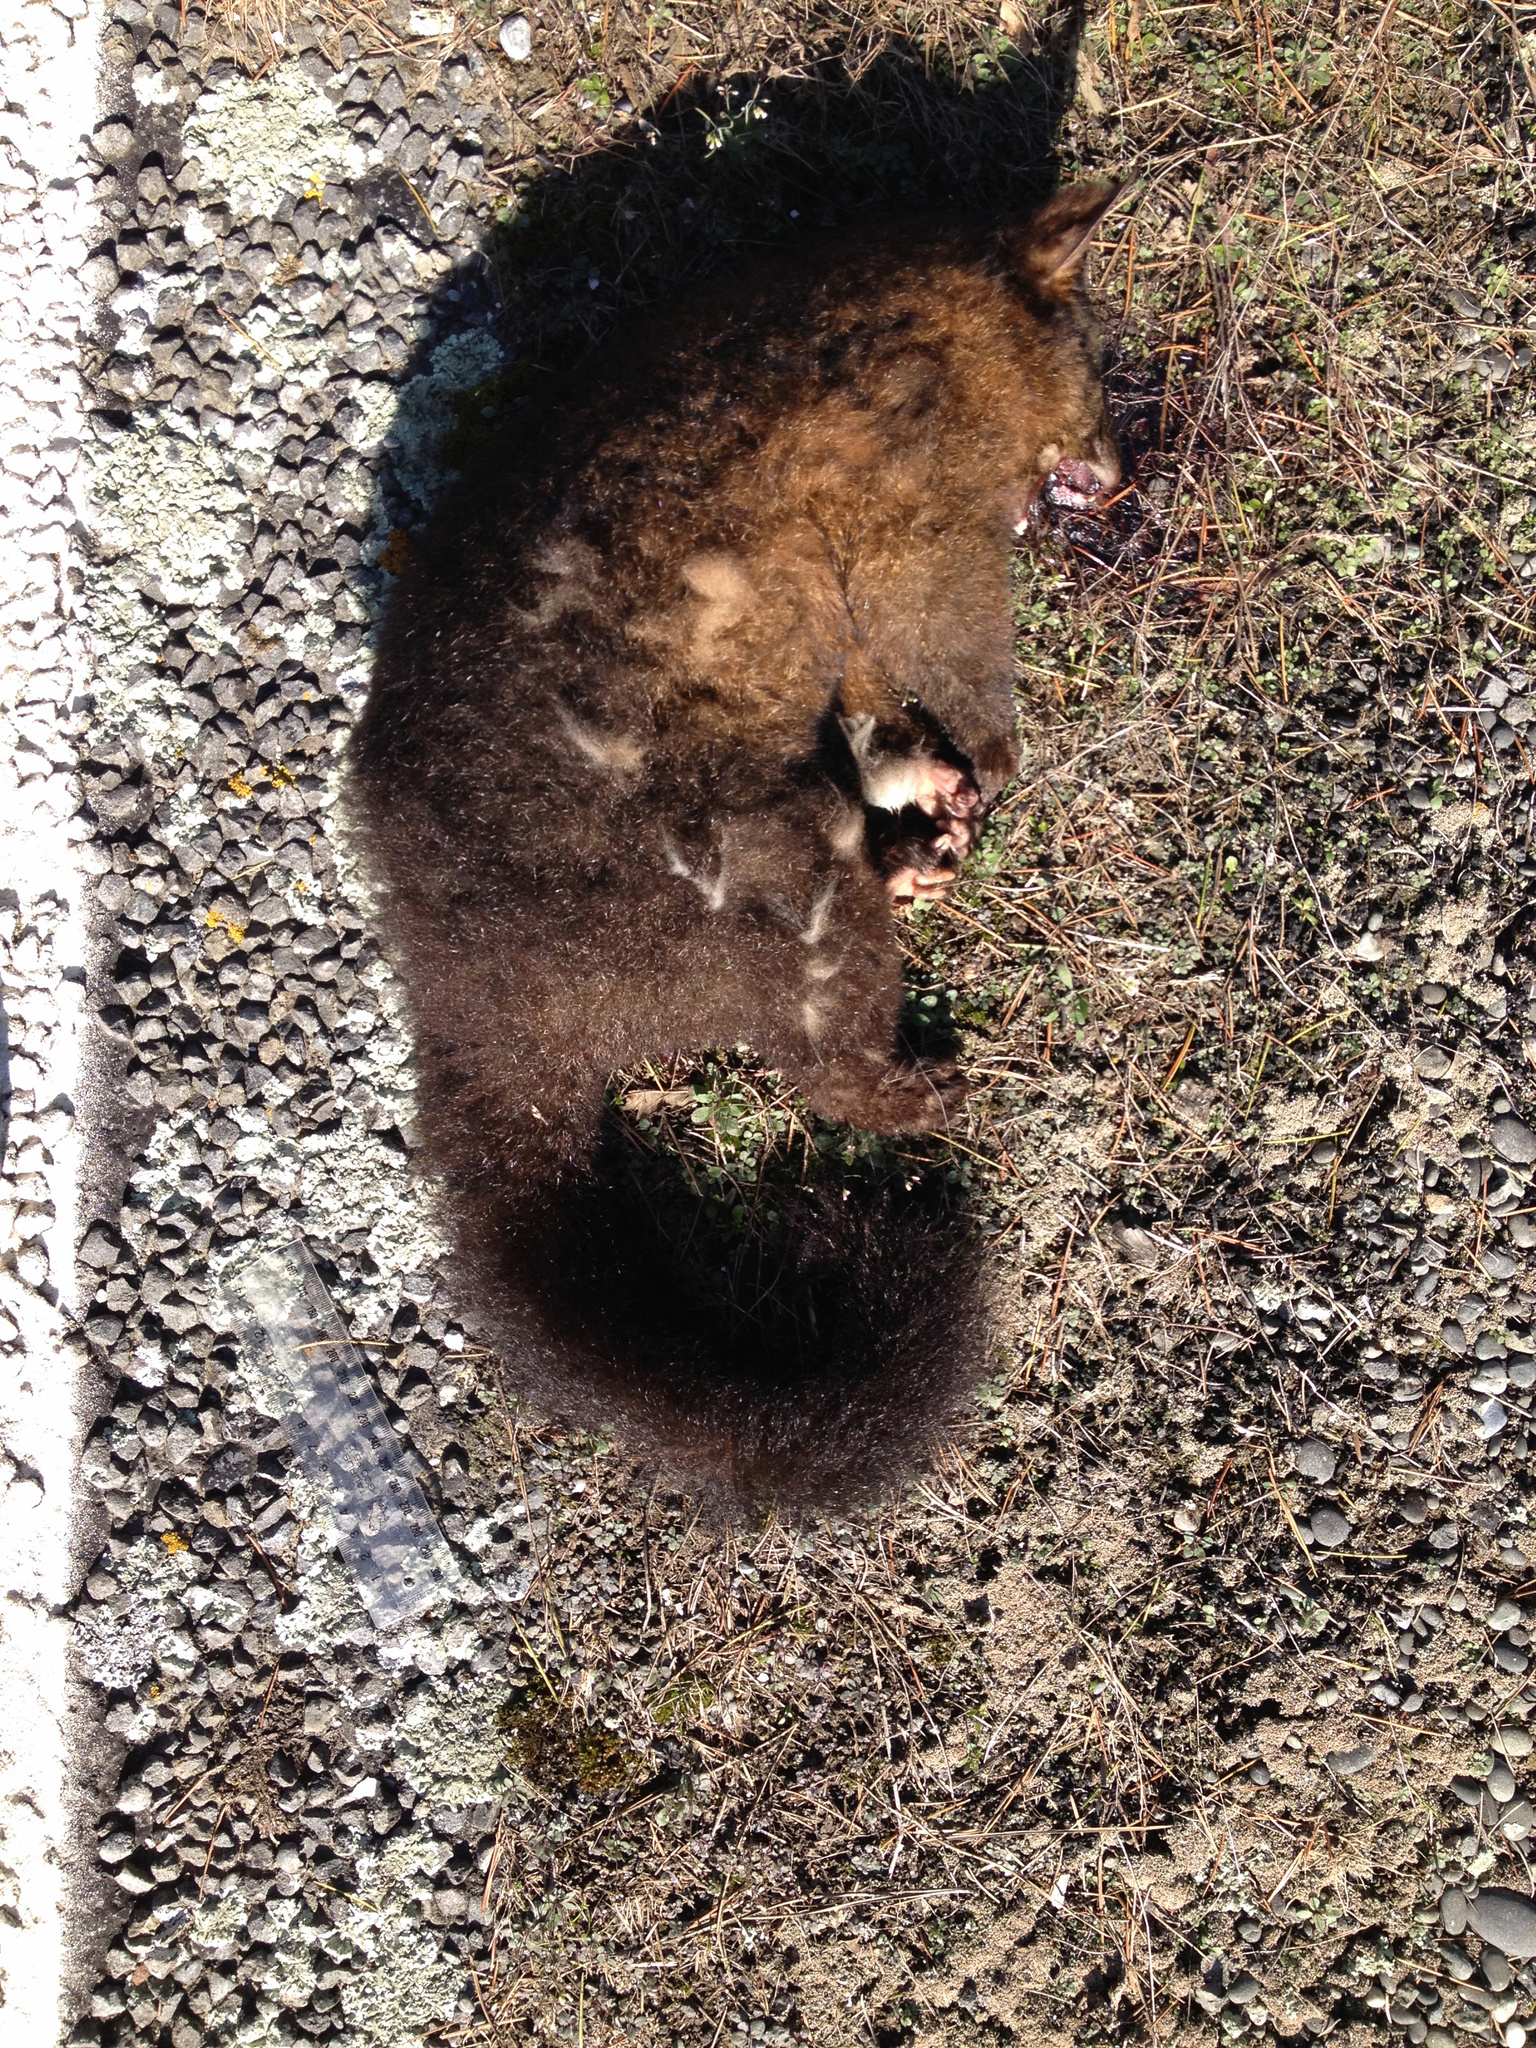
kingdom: Animalia
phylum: Chordata
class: Mammalia
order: Diprotodontia
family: Phalangeridae
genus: Trichosurus
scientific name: Trichosurus vulpecula
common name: Common brushtail
